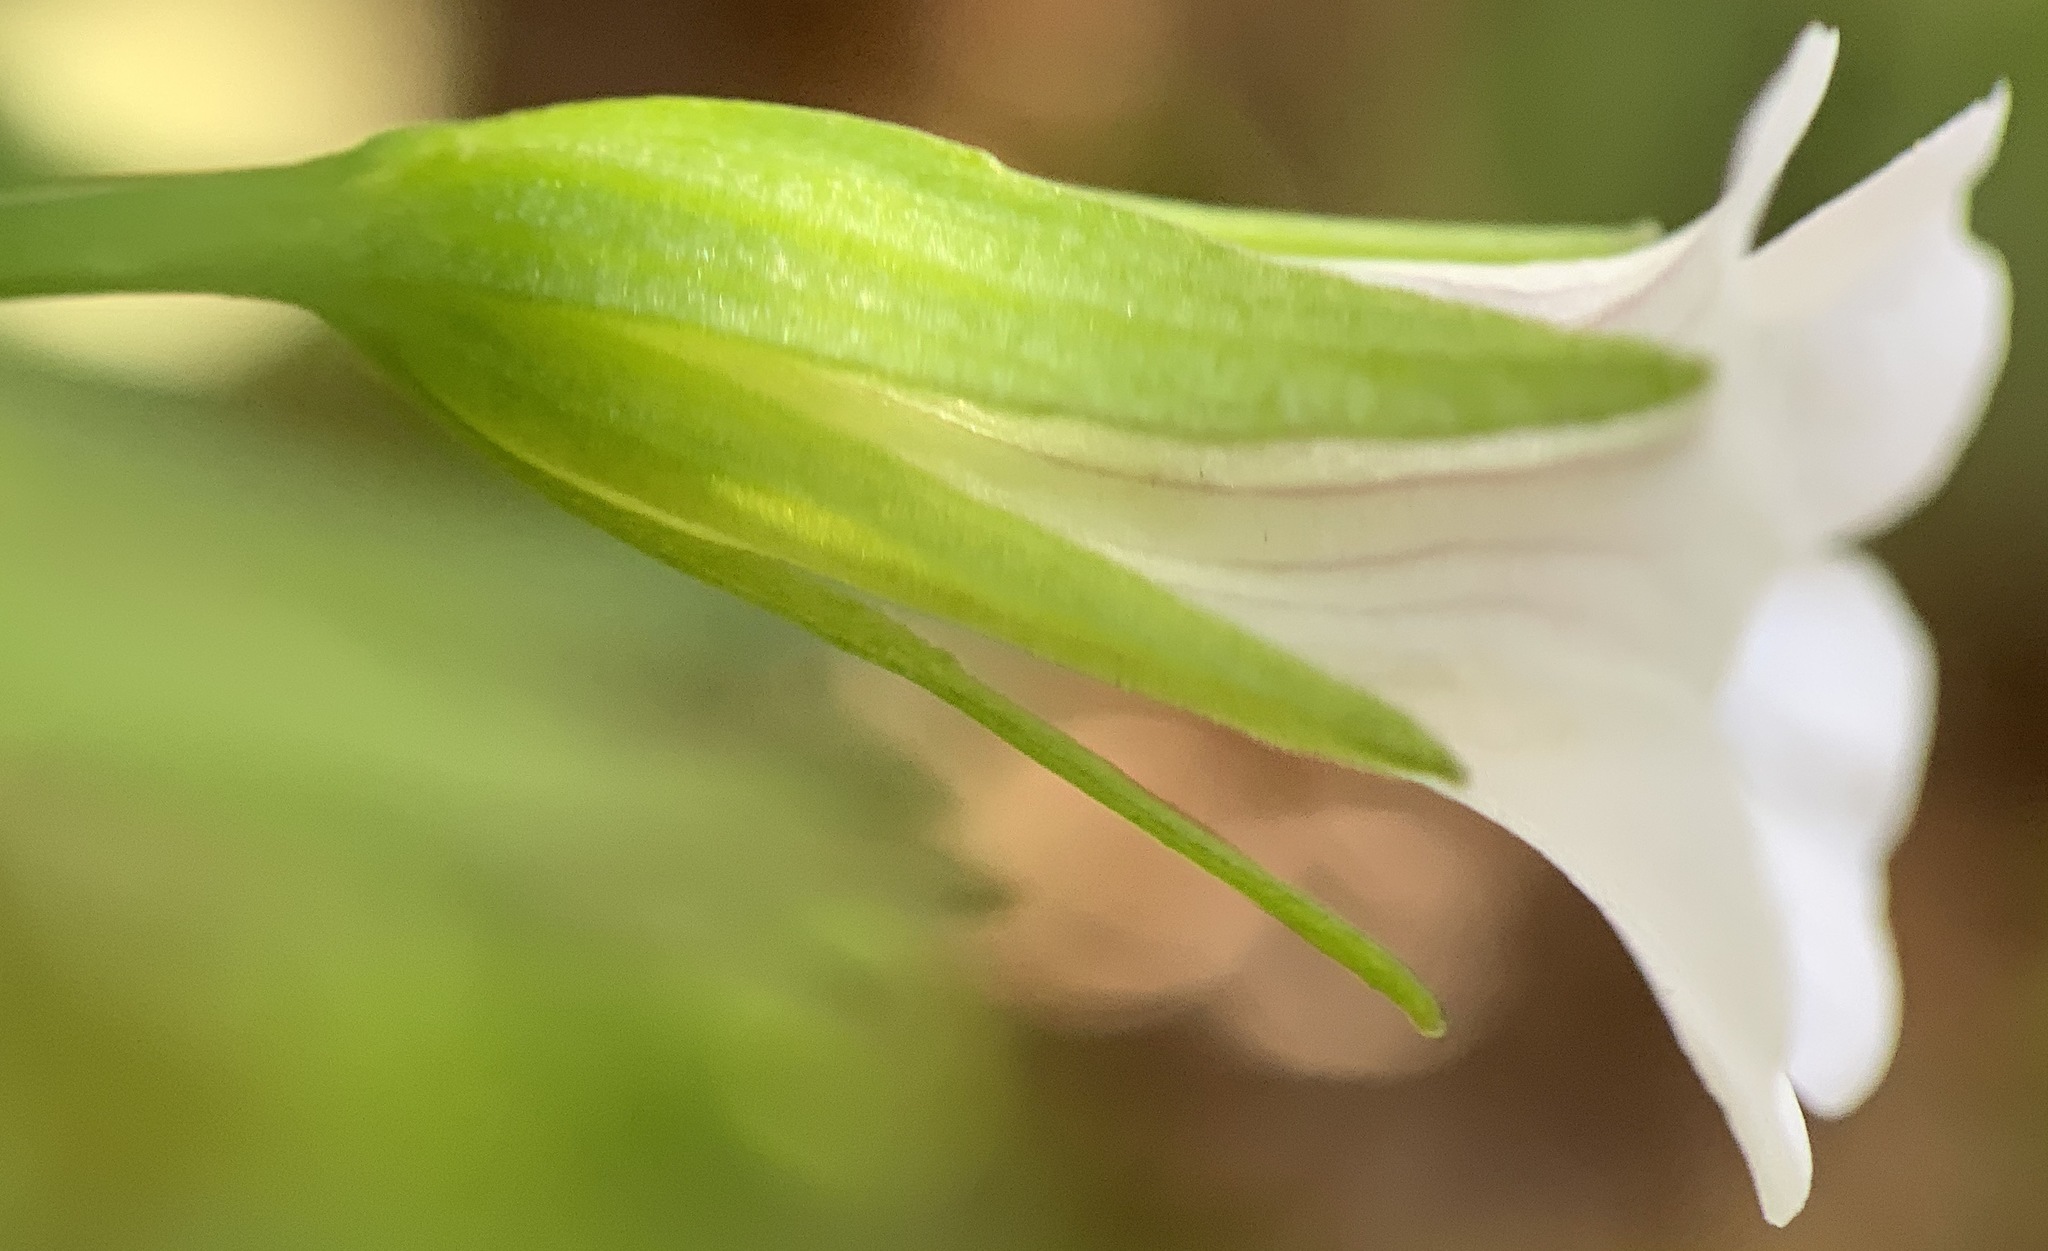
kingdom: Plantae
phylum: Tracheophyta
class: Magnoliopsida
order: Lamiales
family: Plantaginaceae
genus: Mecardonia
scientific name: Mecardonia acuminata
